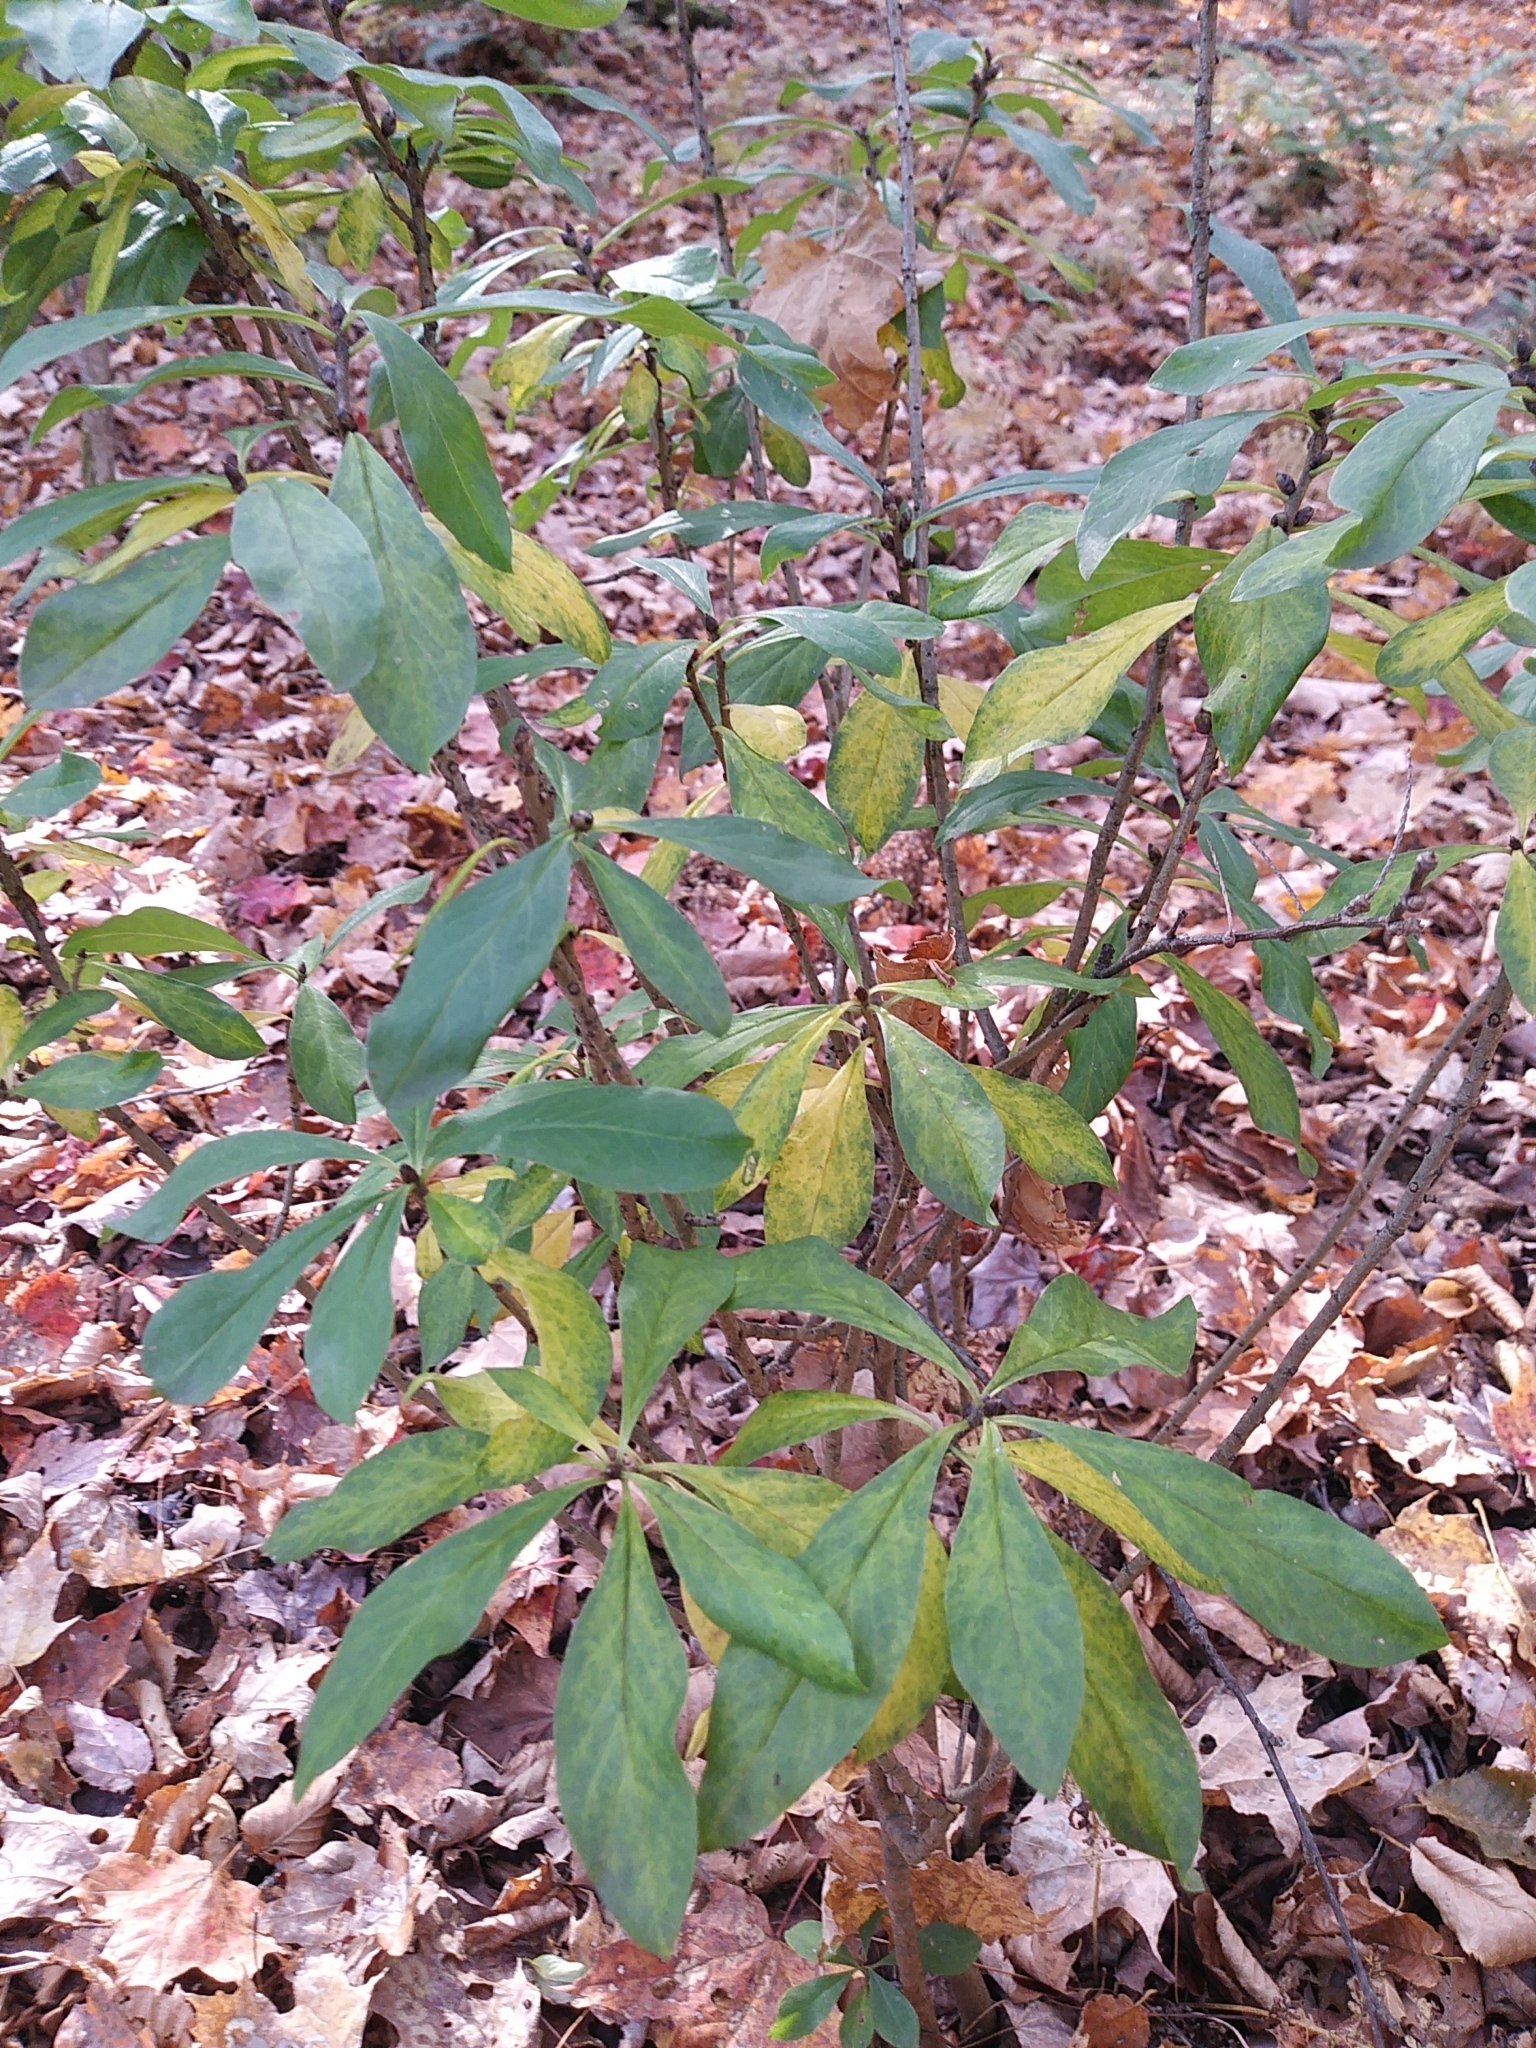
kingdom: Plantae
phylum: Tracheophyta
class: Magnoliopsida
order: Malvales
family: Thymelaeaceae
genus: Daphne
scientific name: Daphne mezereum
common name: Mezereon
